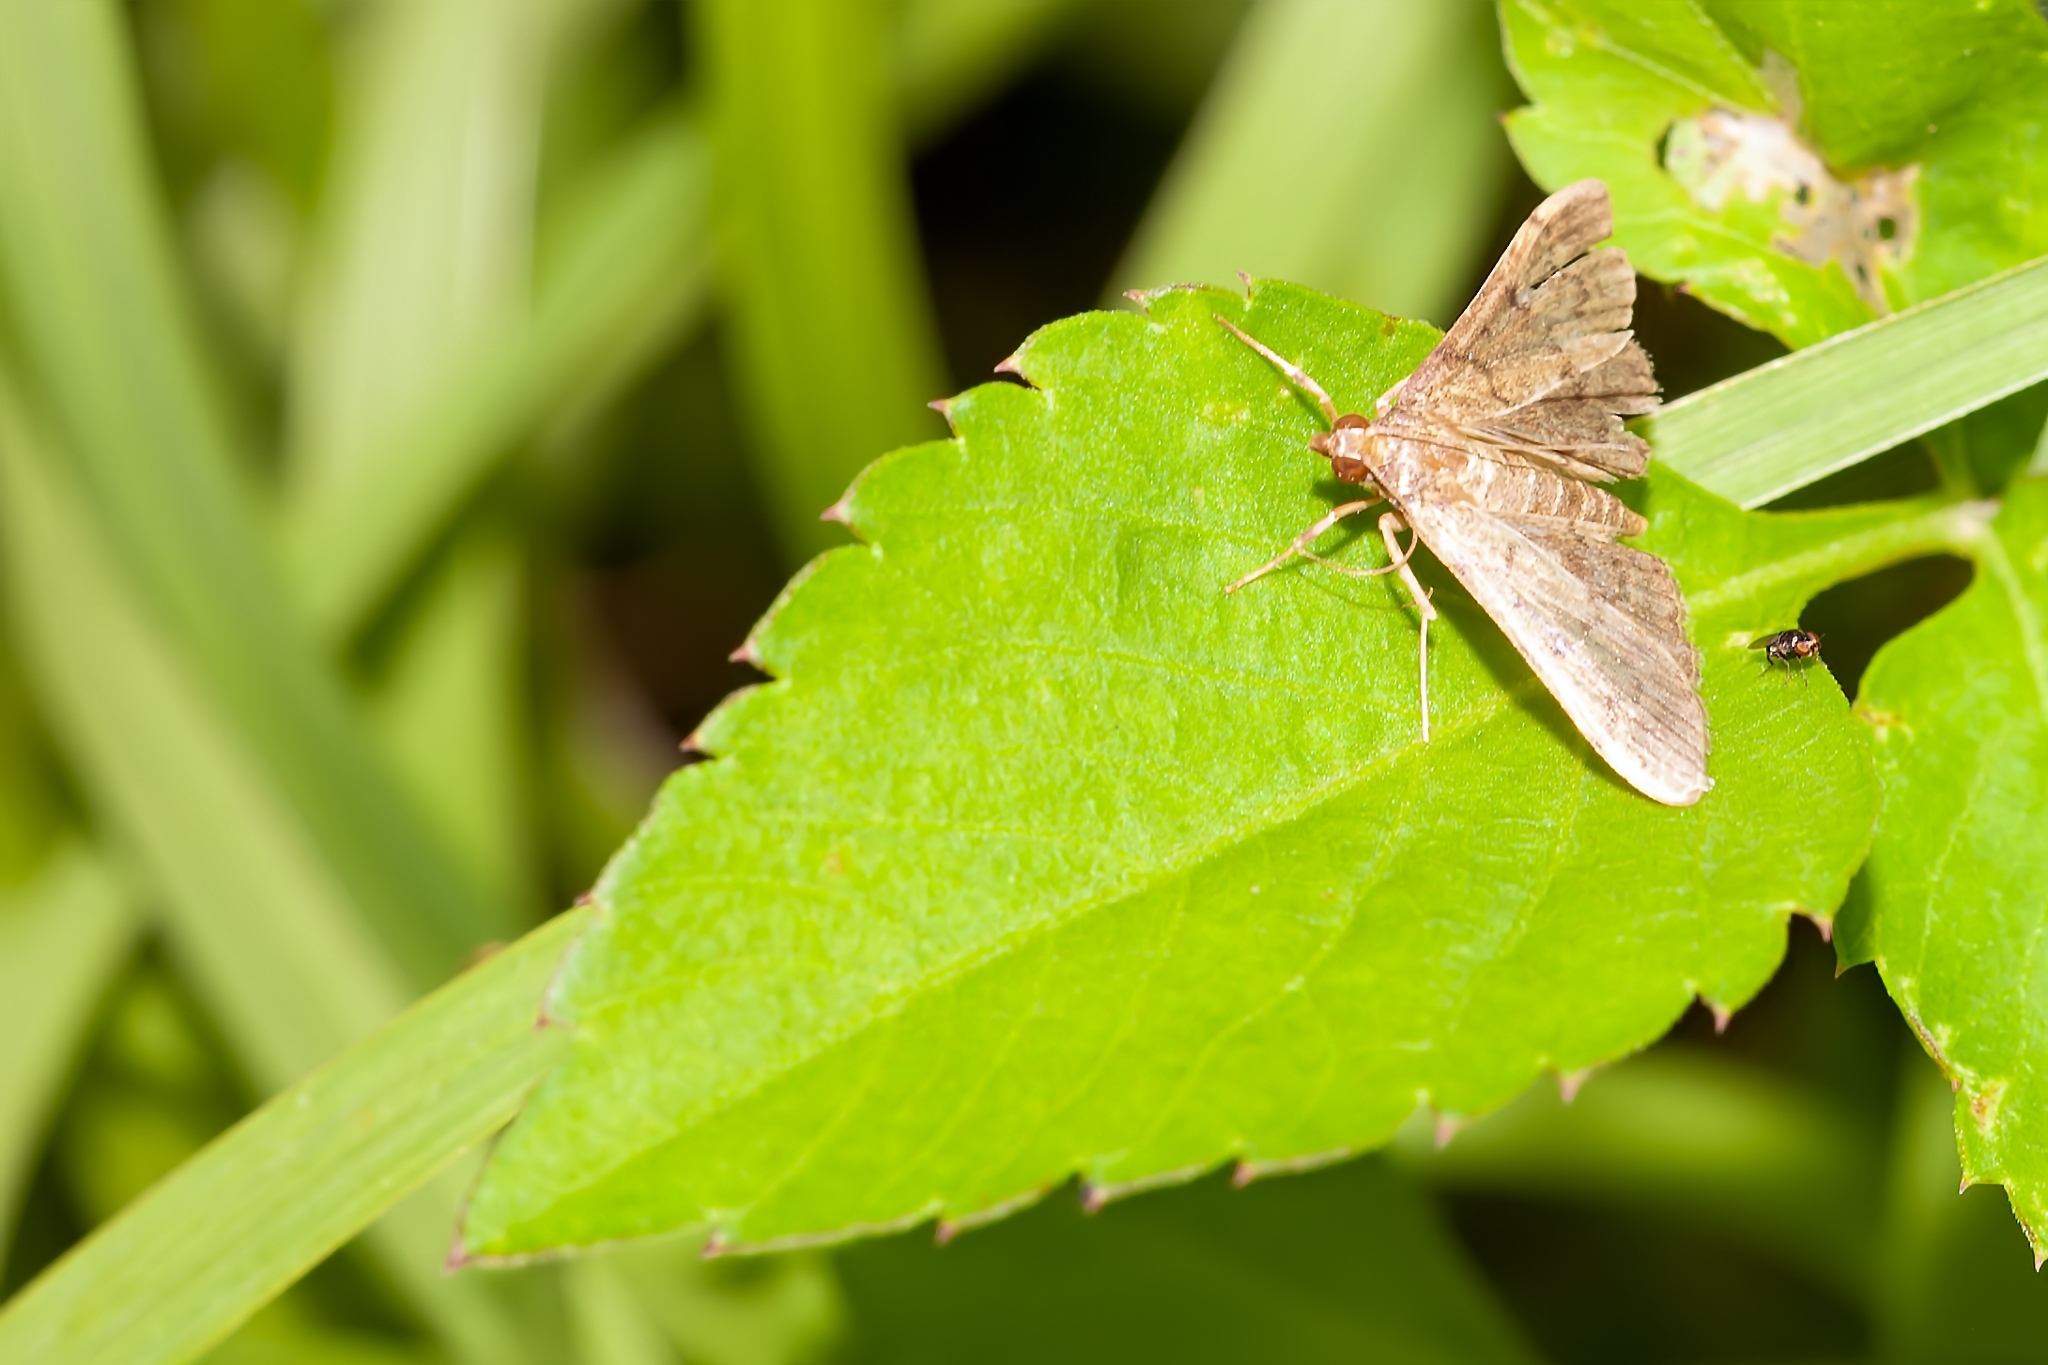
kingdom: Animalia
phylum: Arthropoda
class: Insecta
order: Lepidoptera
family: Crambidae
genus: Herpetogramma
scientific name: Herpetogramma phaeopteralis
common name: Dusky herpetogramma moth
